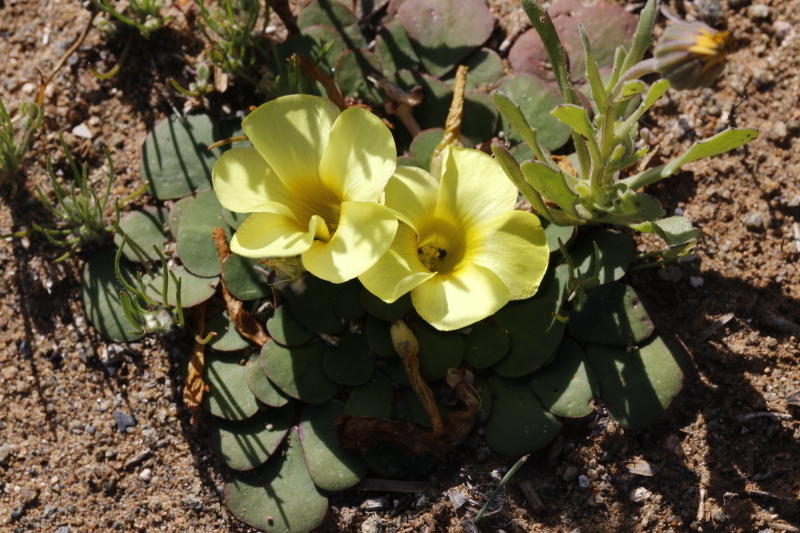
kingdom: Plantae
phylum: Tracheophyta
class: Magnoliopsida
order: Oxalidales
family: Oxalidaceae
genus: Oxalis
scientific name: Oxalis purpurea
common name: Purple woodsorrel
